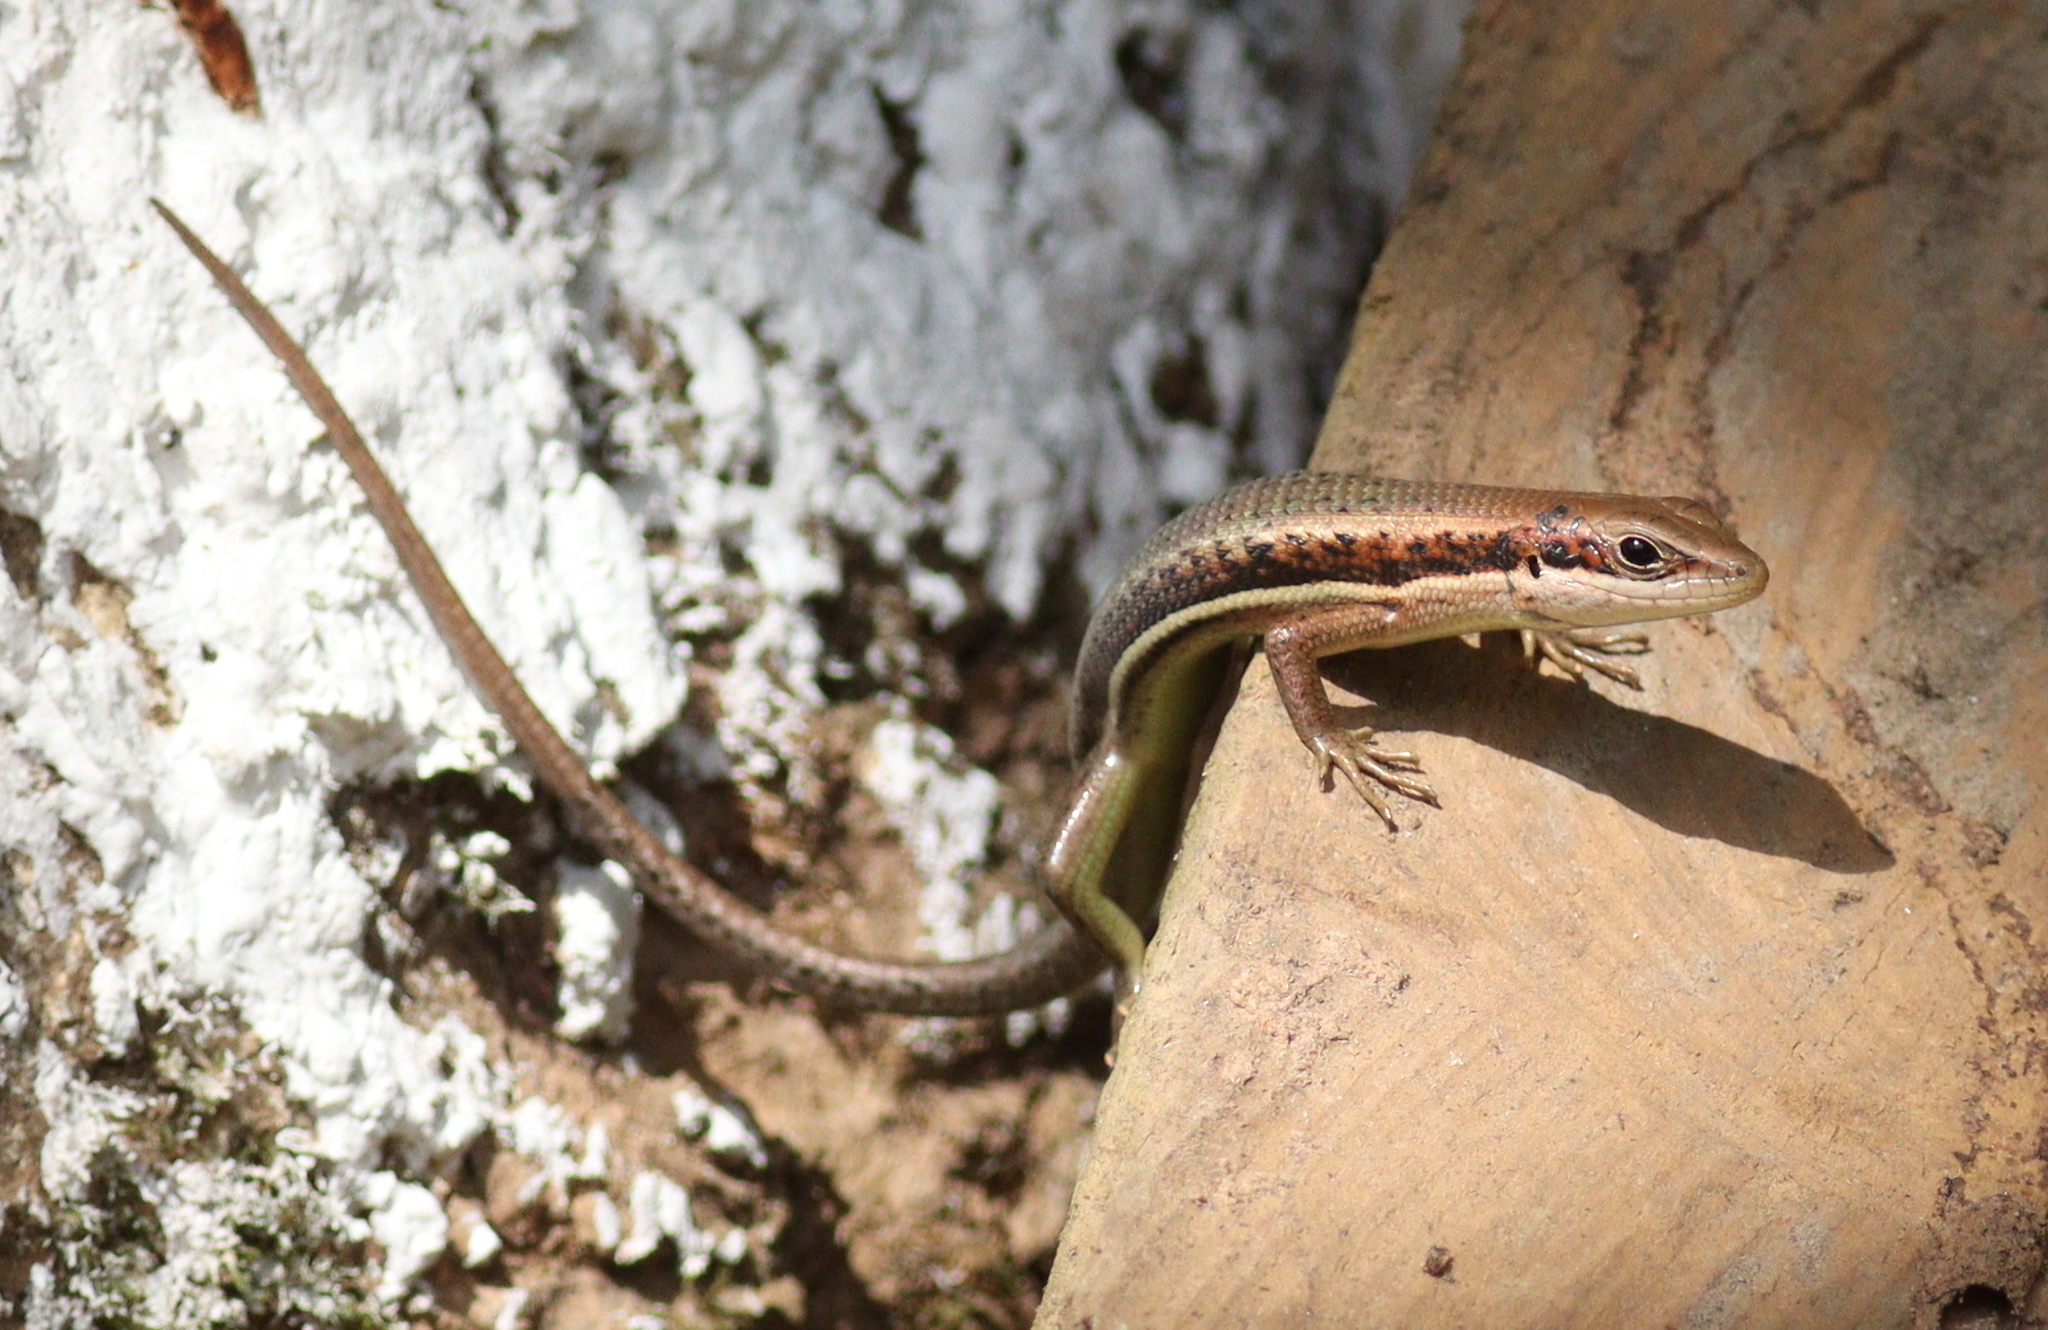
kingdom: Animalia
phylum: Chordata
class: Squamata
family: Scincidae
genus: Trachylepis
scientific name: Trachylepis affinis
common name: Senegal mabuya
